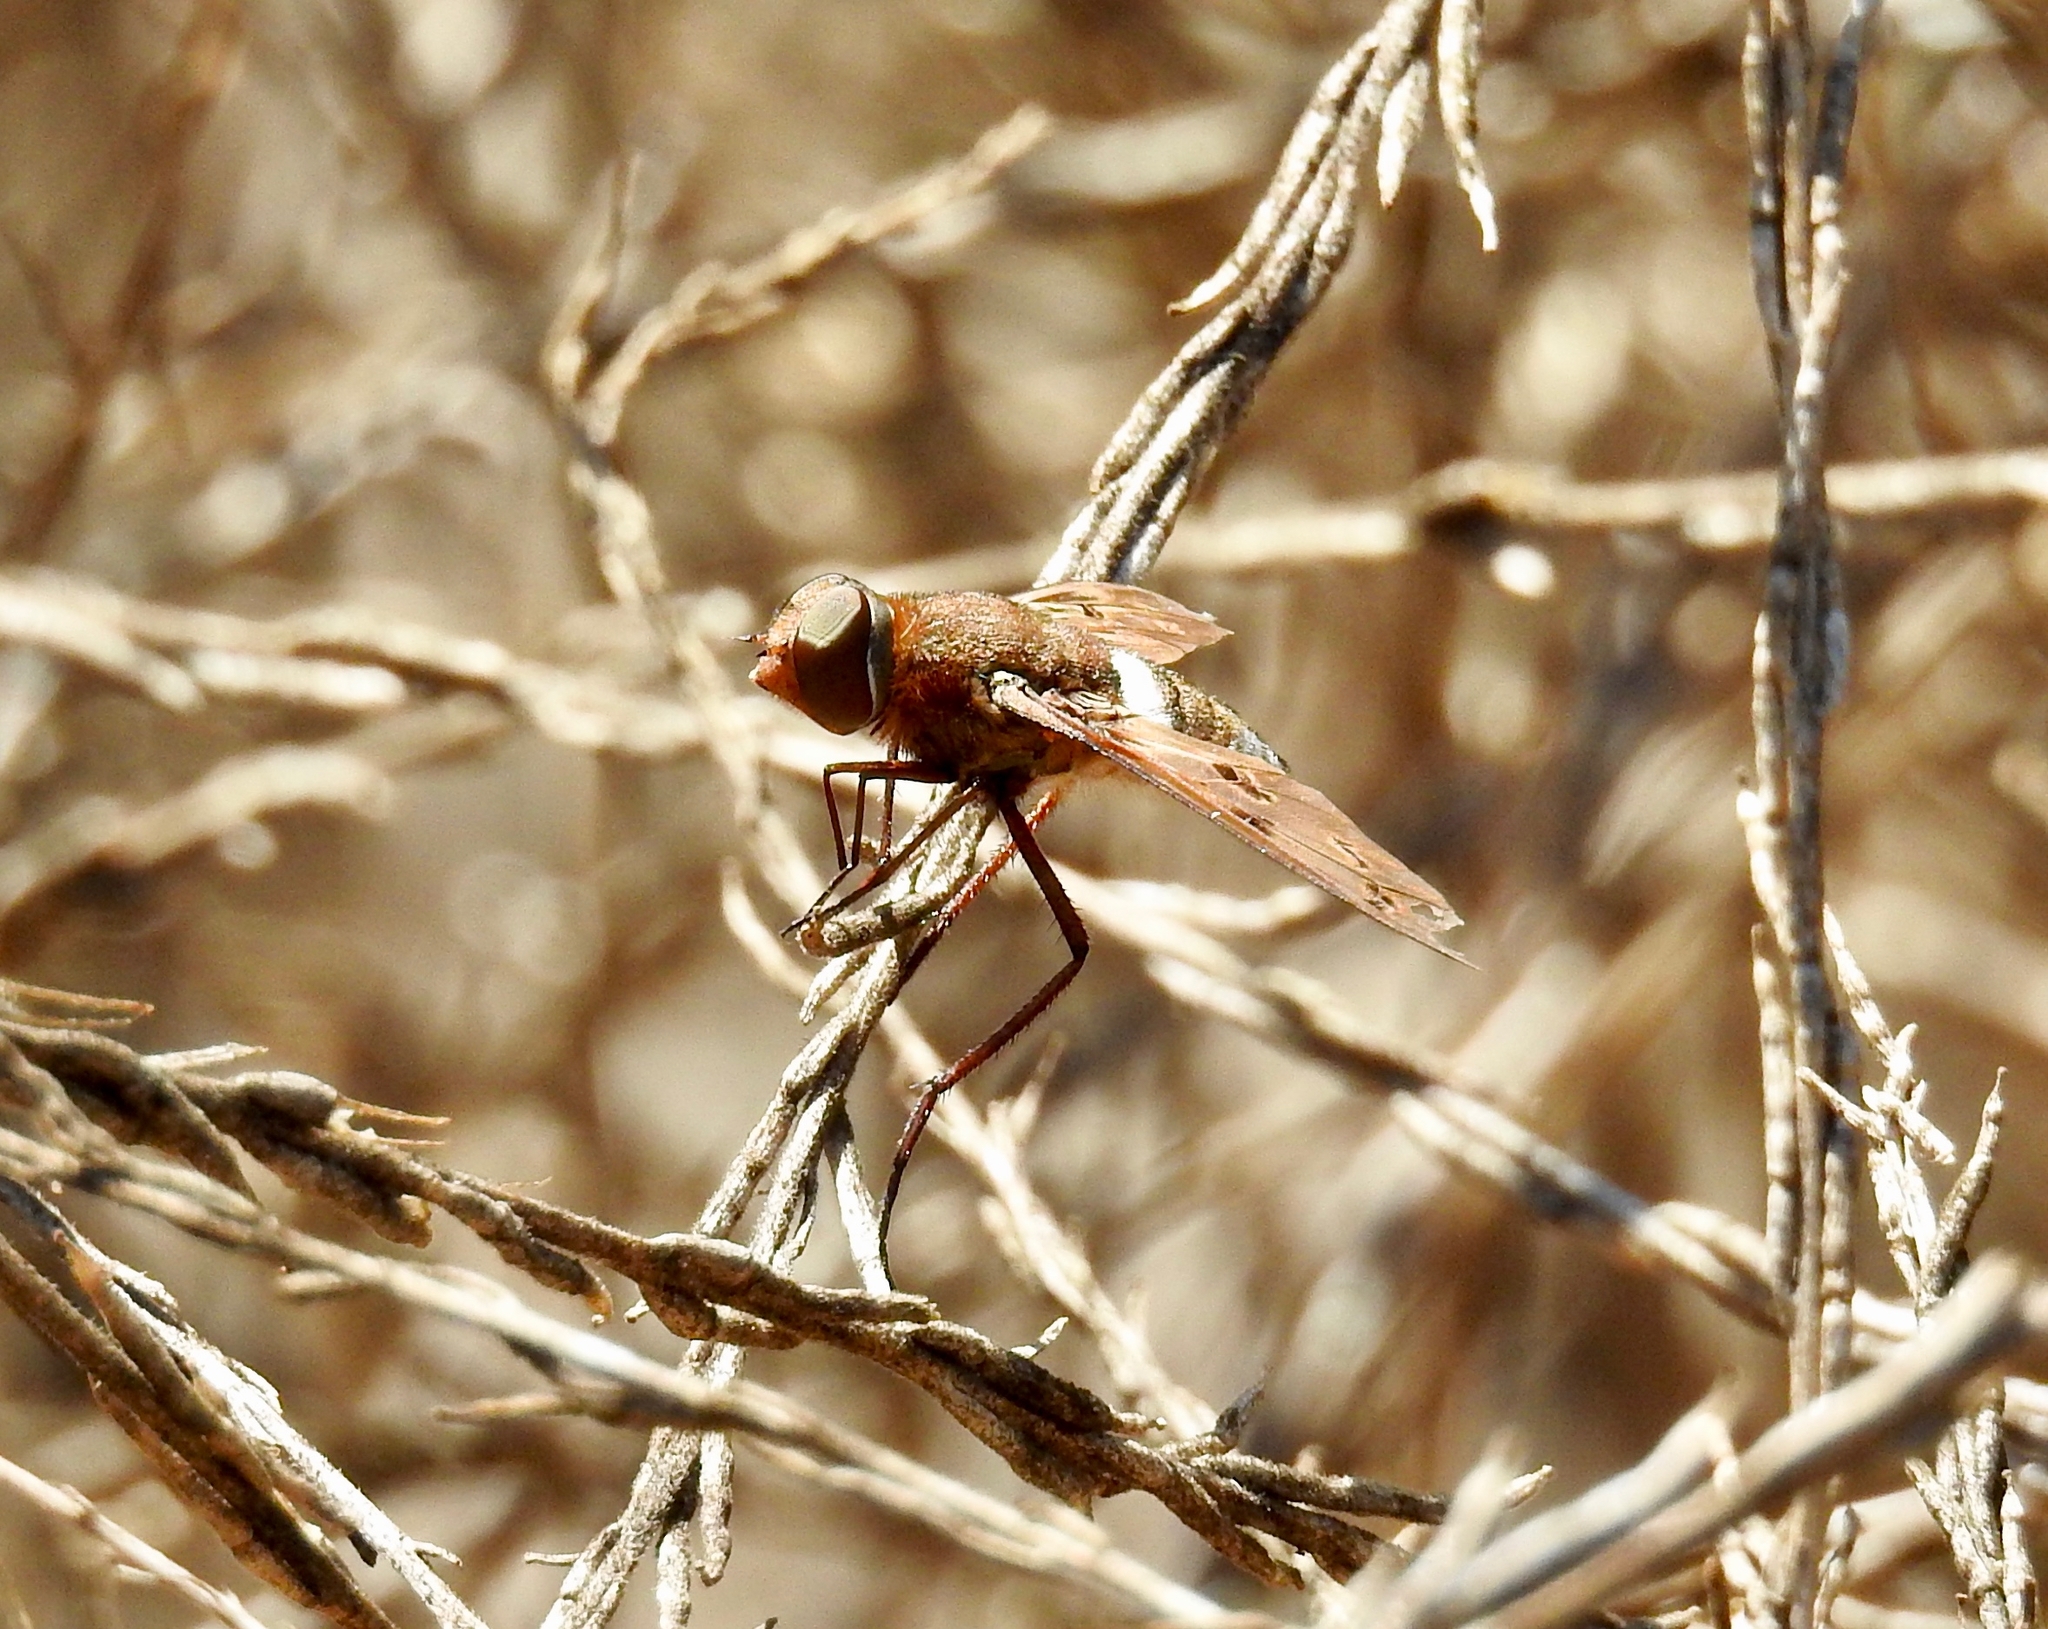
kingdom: Animalia
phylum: Arthropoda
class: Insecta
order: Diptera
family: Bombyliidae
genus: Nyia
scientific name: Nyia gazophylax
